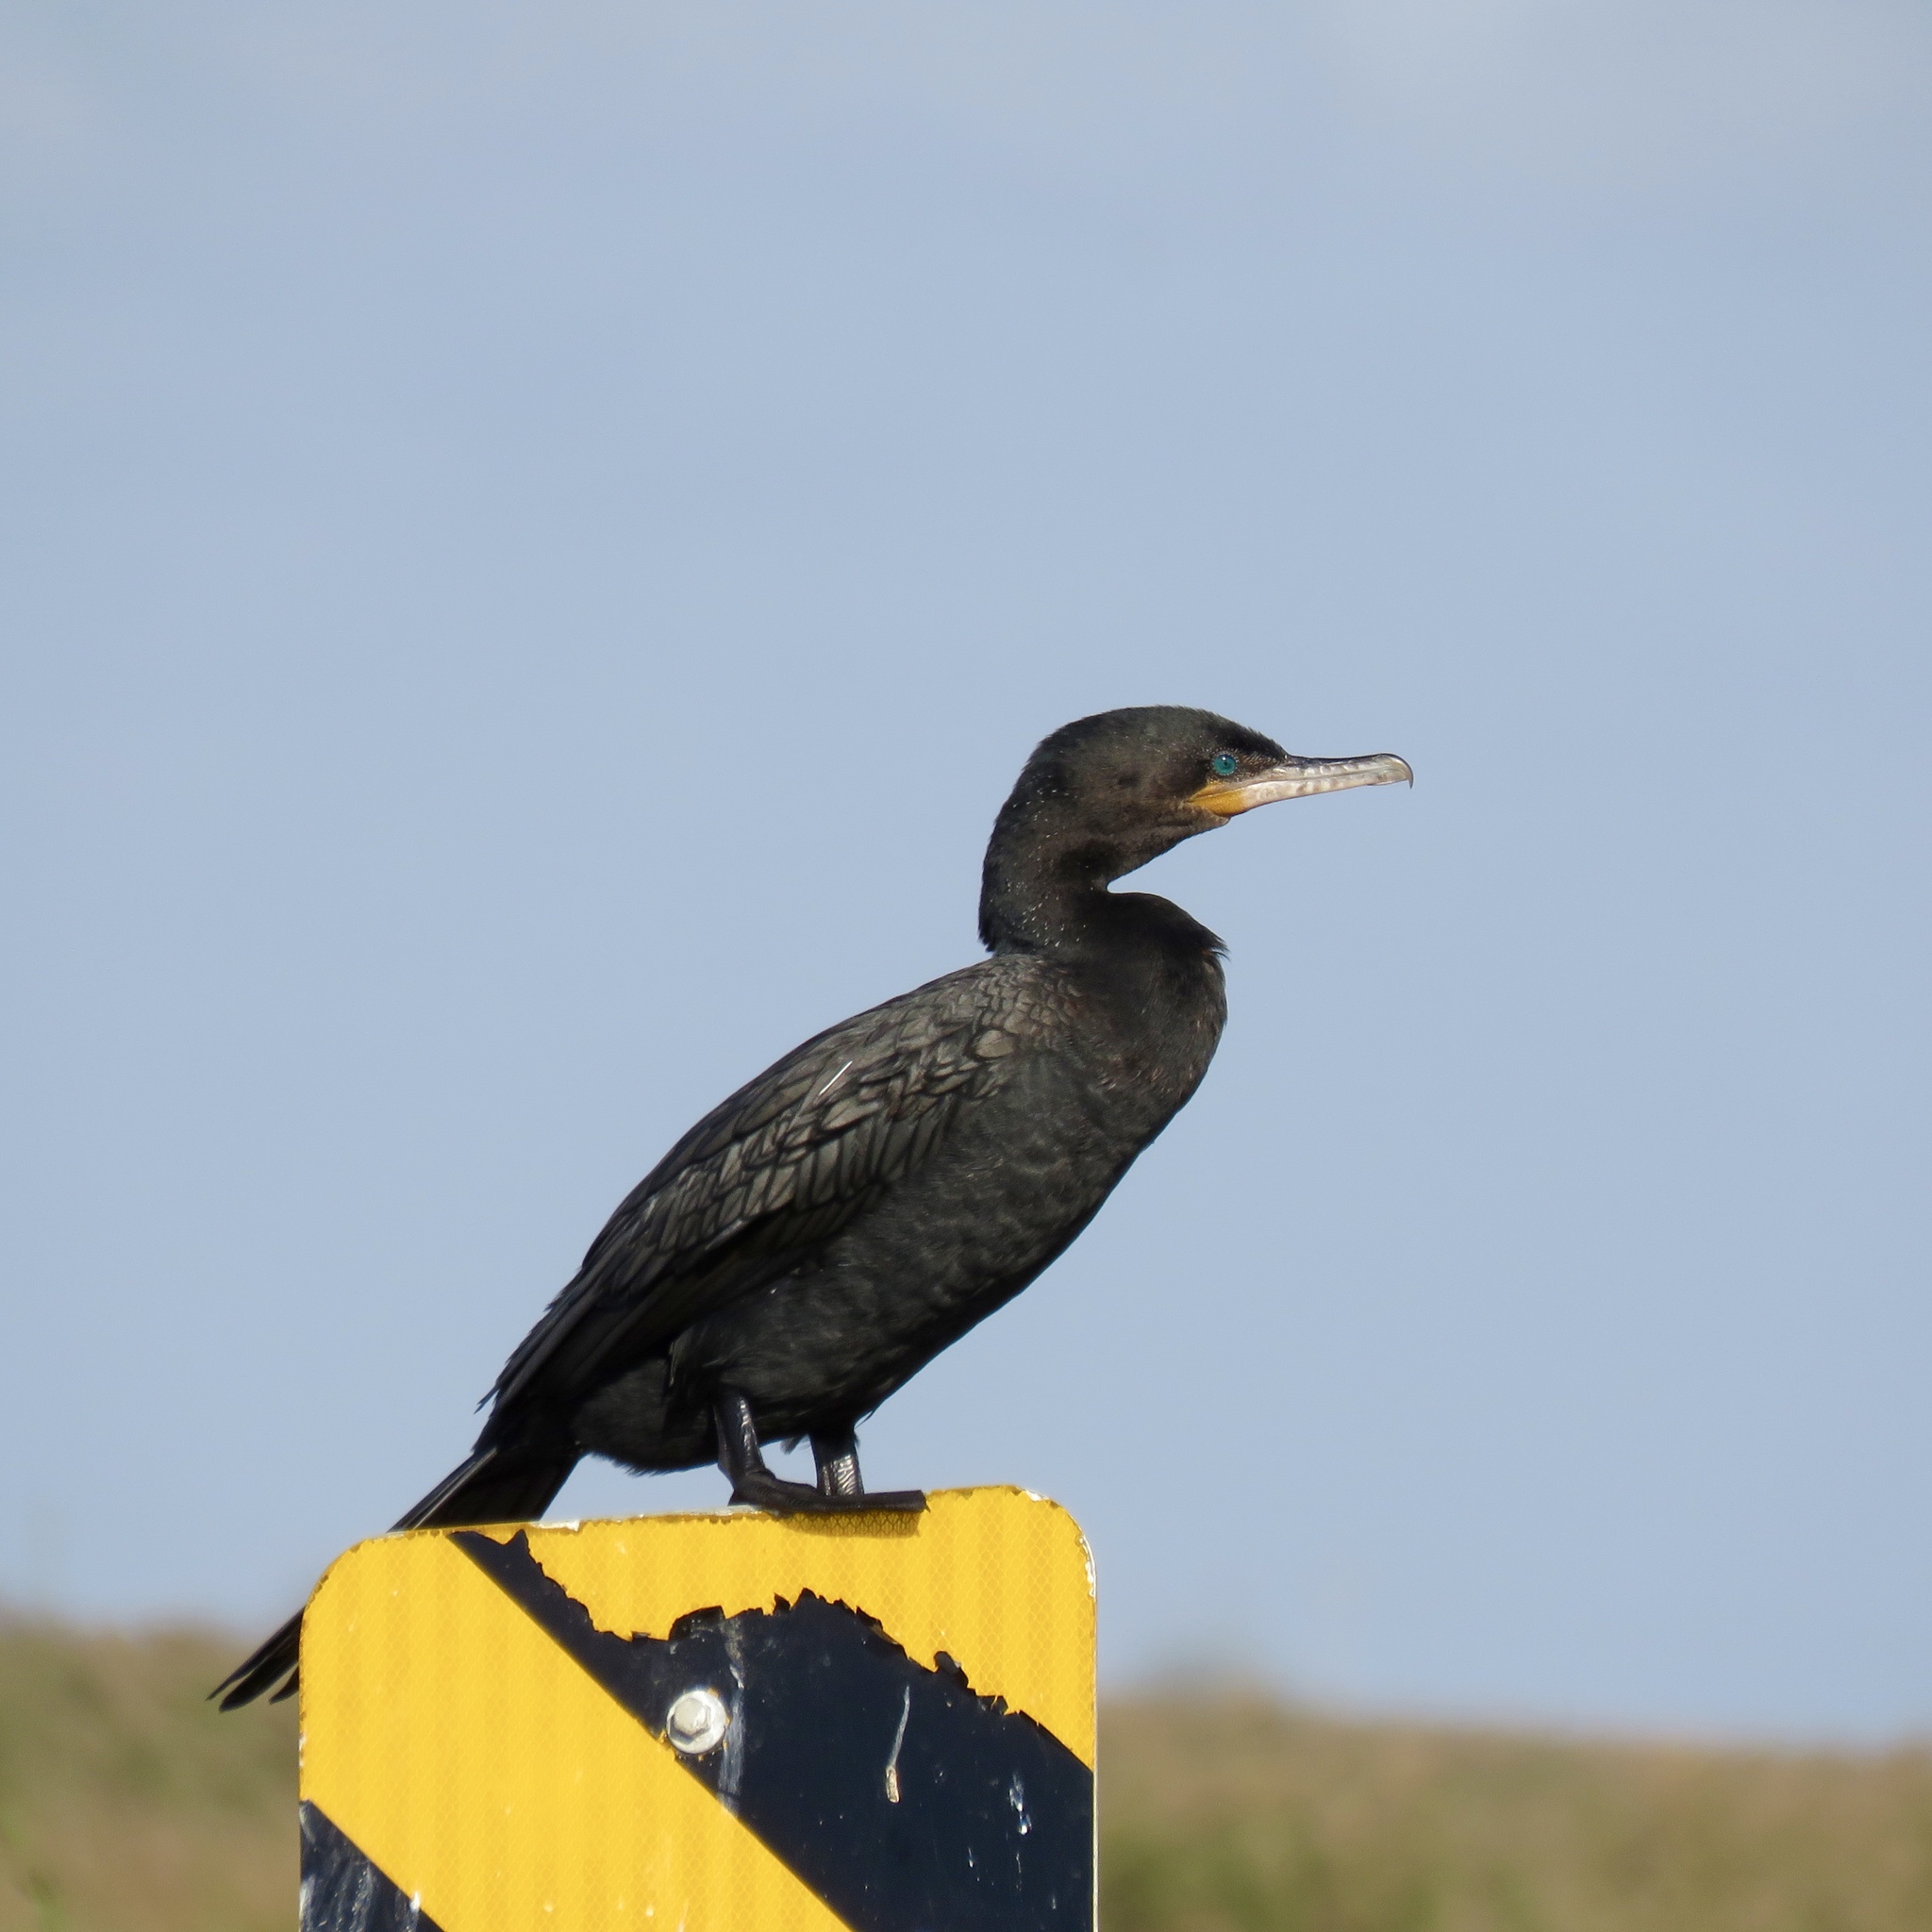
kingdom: Animalia
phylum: Chordata
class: Aves
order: Suliformes
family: Phalacrocoracidae
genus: Phalacrocorax
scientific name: Phalacrocorax brasilianus
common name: Neotropic cormorant
